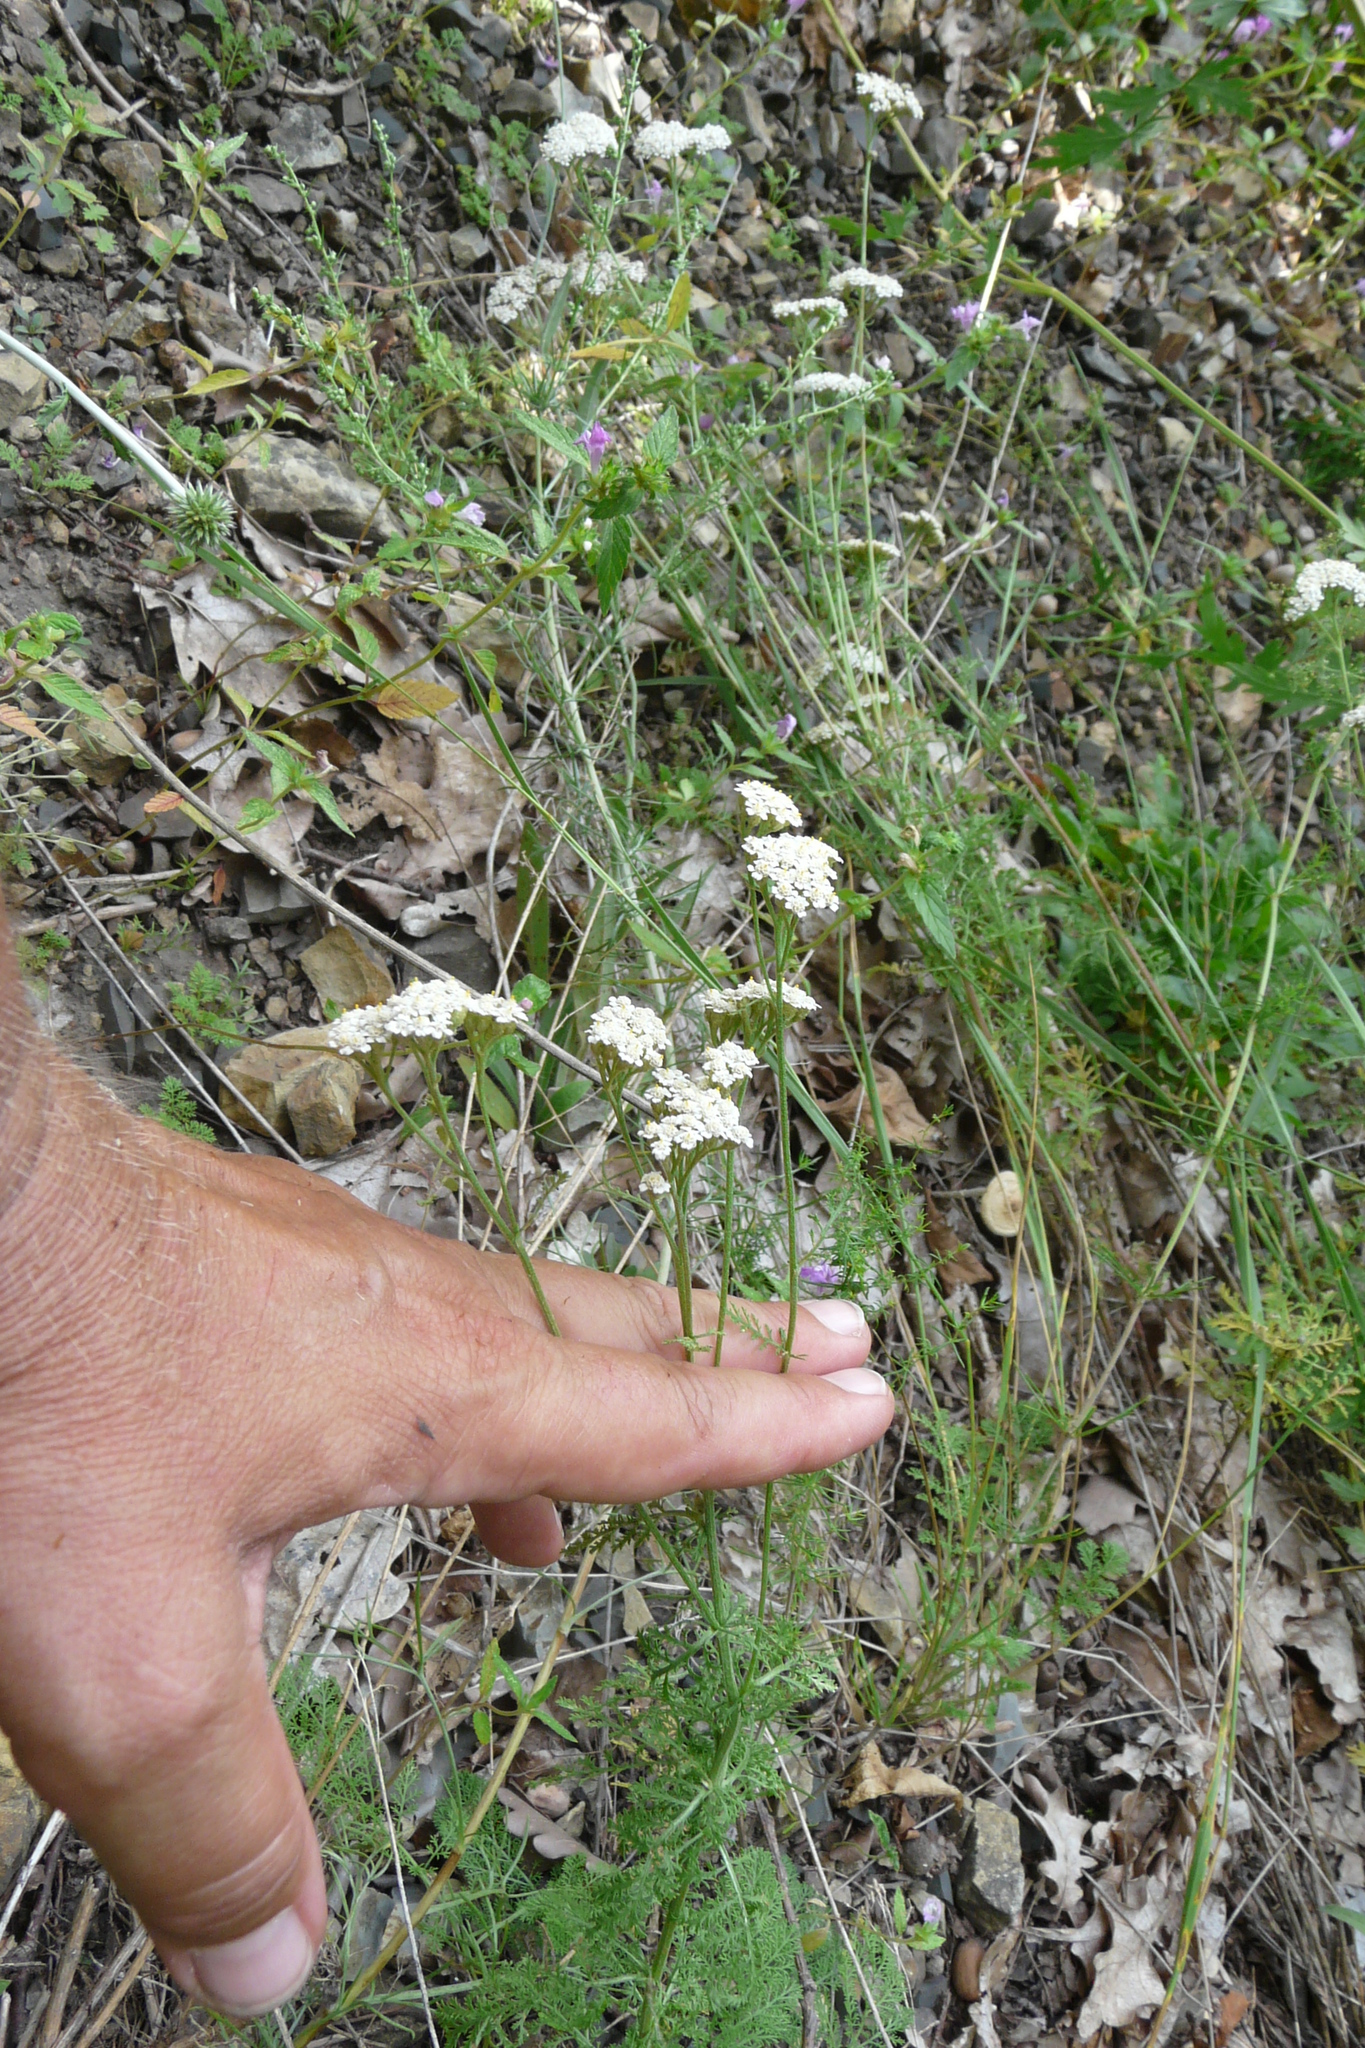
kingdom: Plantae
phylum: Tracheophyta
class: Magnoliopsida
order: Asterales
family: Asteraceae
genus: Achillea
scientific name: Achillea nobilis
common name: Noble yarrow
